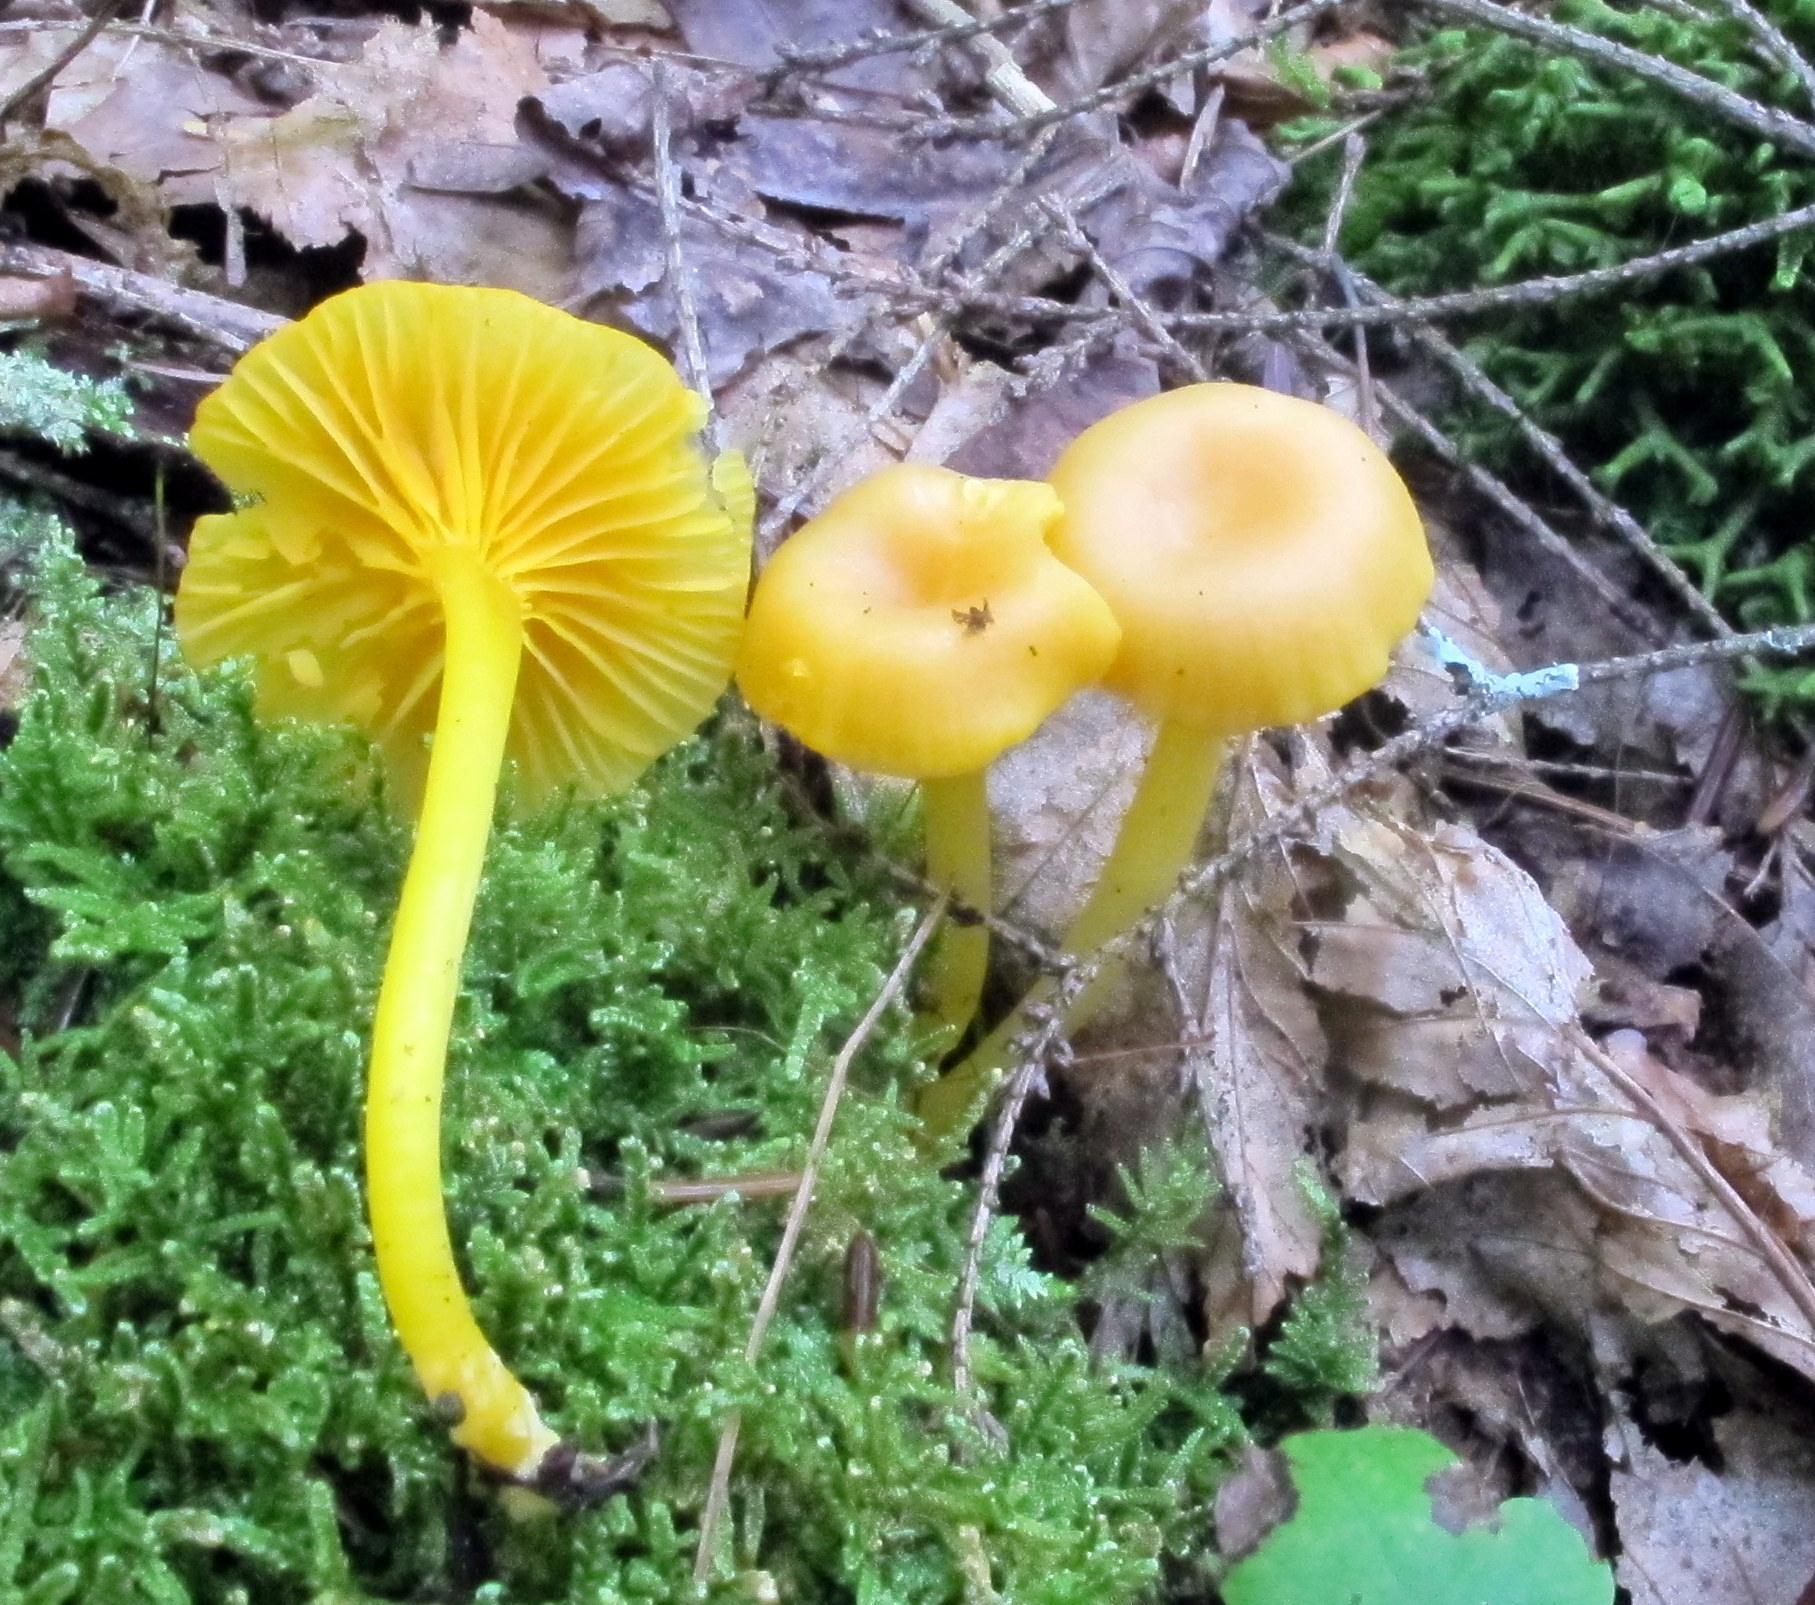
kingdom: Fungi
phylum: Basidiomycota
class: Agaricomycetes
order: Agaricales
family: Hygrophoraceae
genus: Gloioxanthomyces
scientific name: Gloioxanthomyces nitidus
